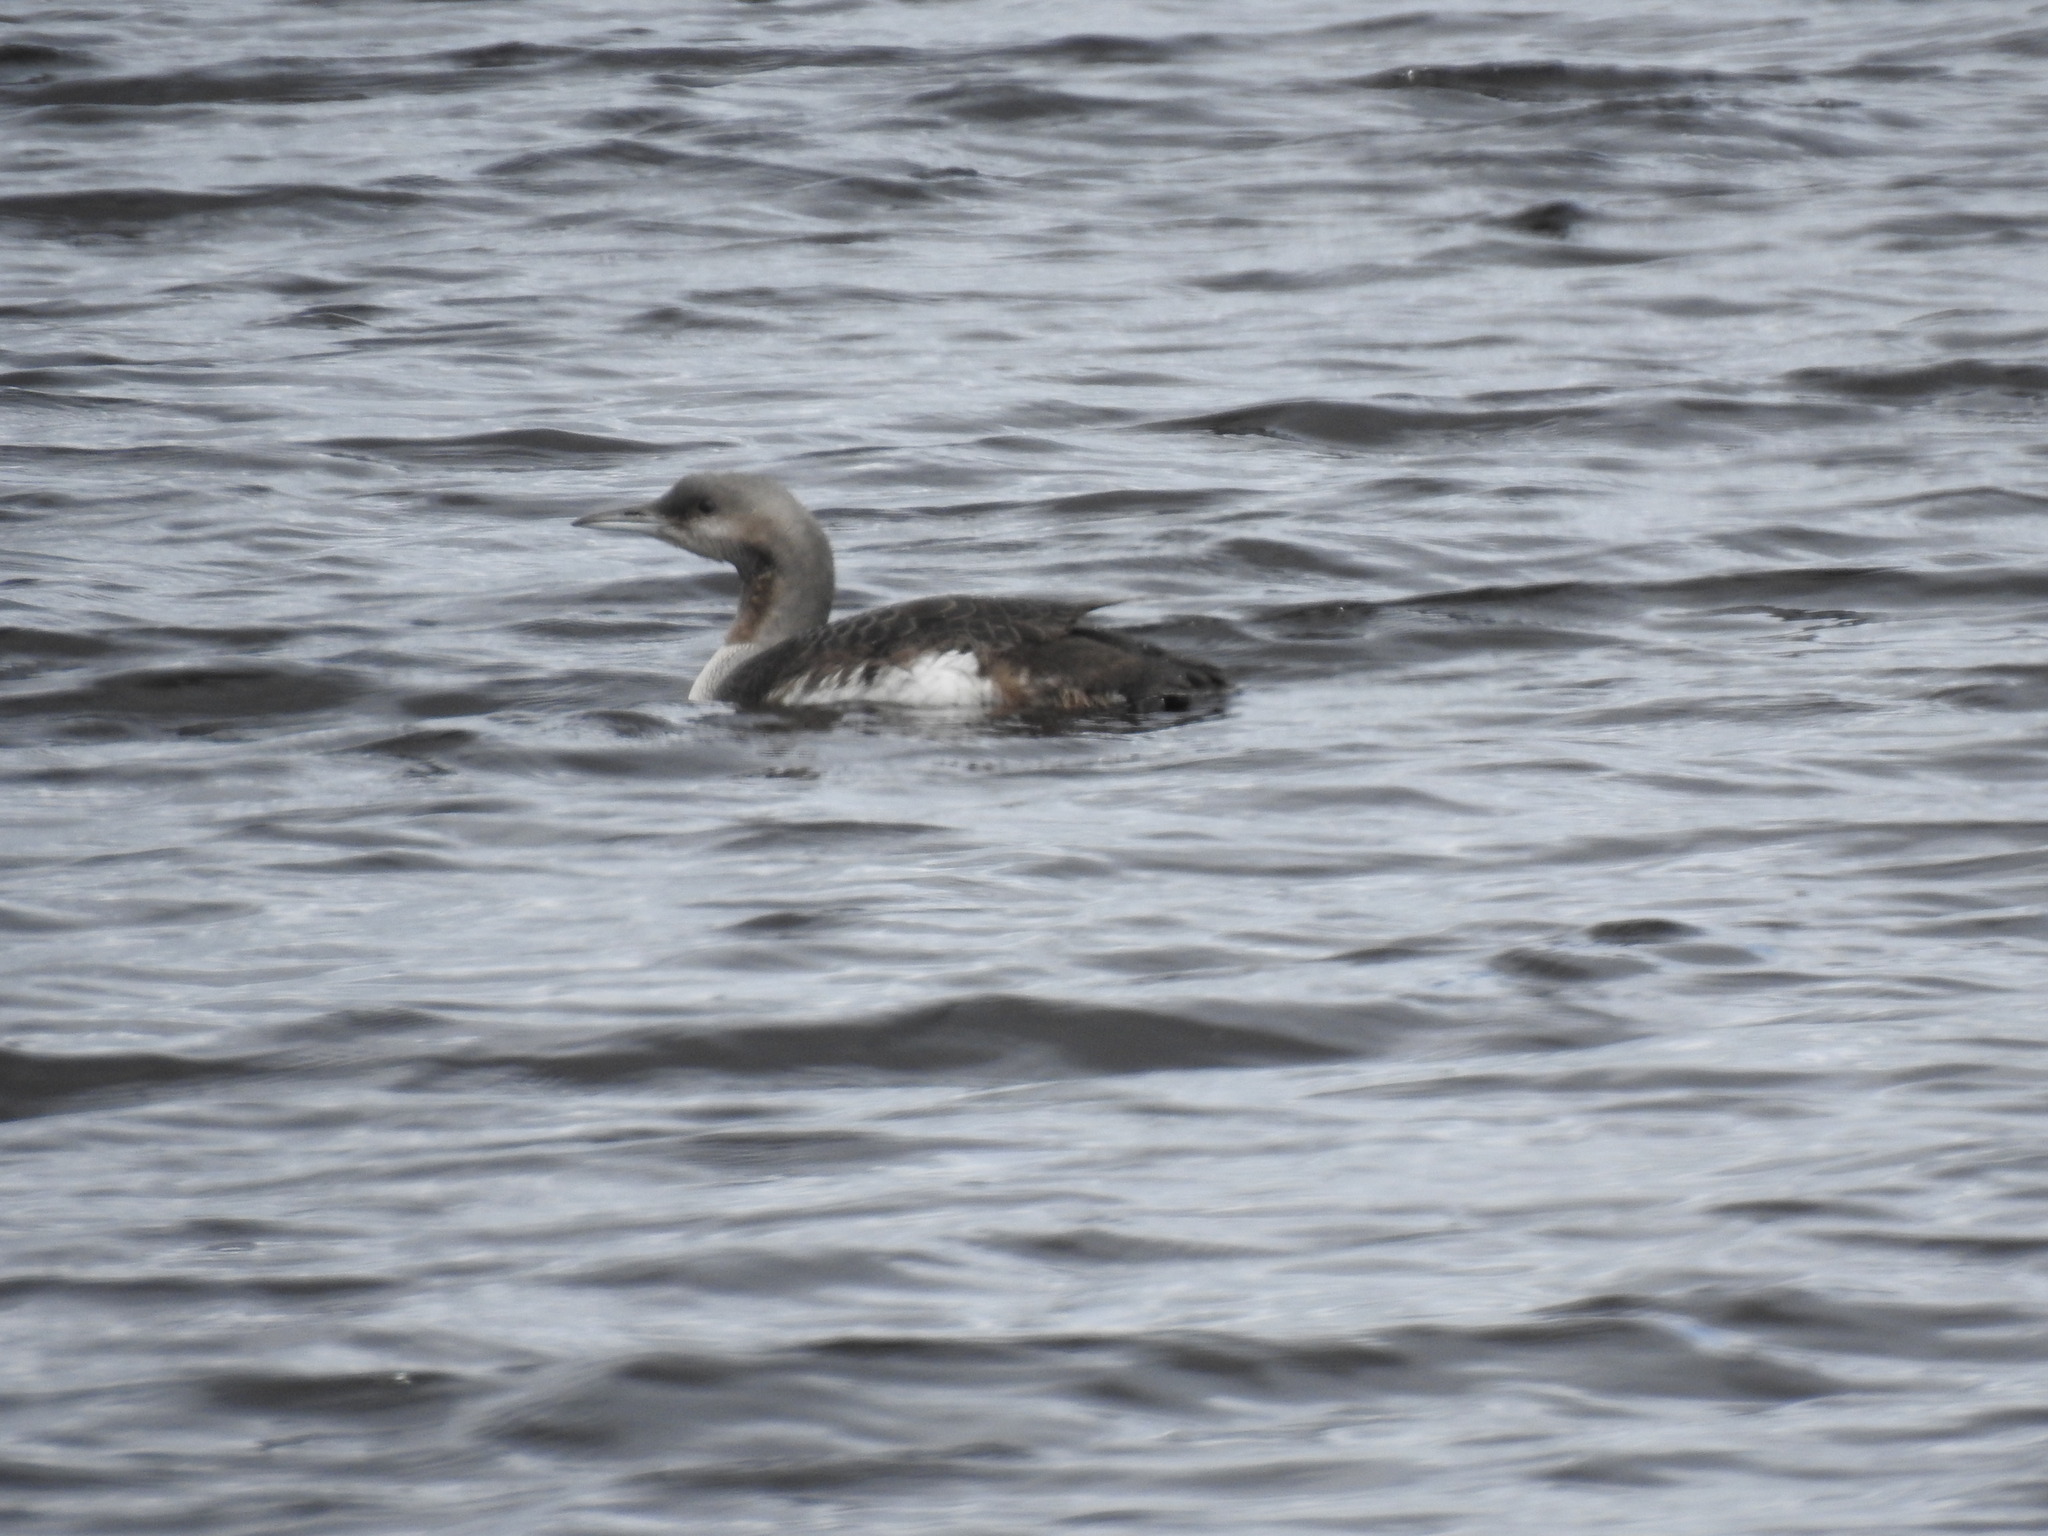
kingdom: Animalia
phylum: Chordata
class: Aves
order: Gaviiformes
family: Gaviidae
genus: Gavia
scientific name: Gavia arctica
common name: Black-throated loon
